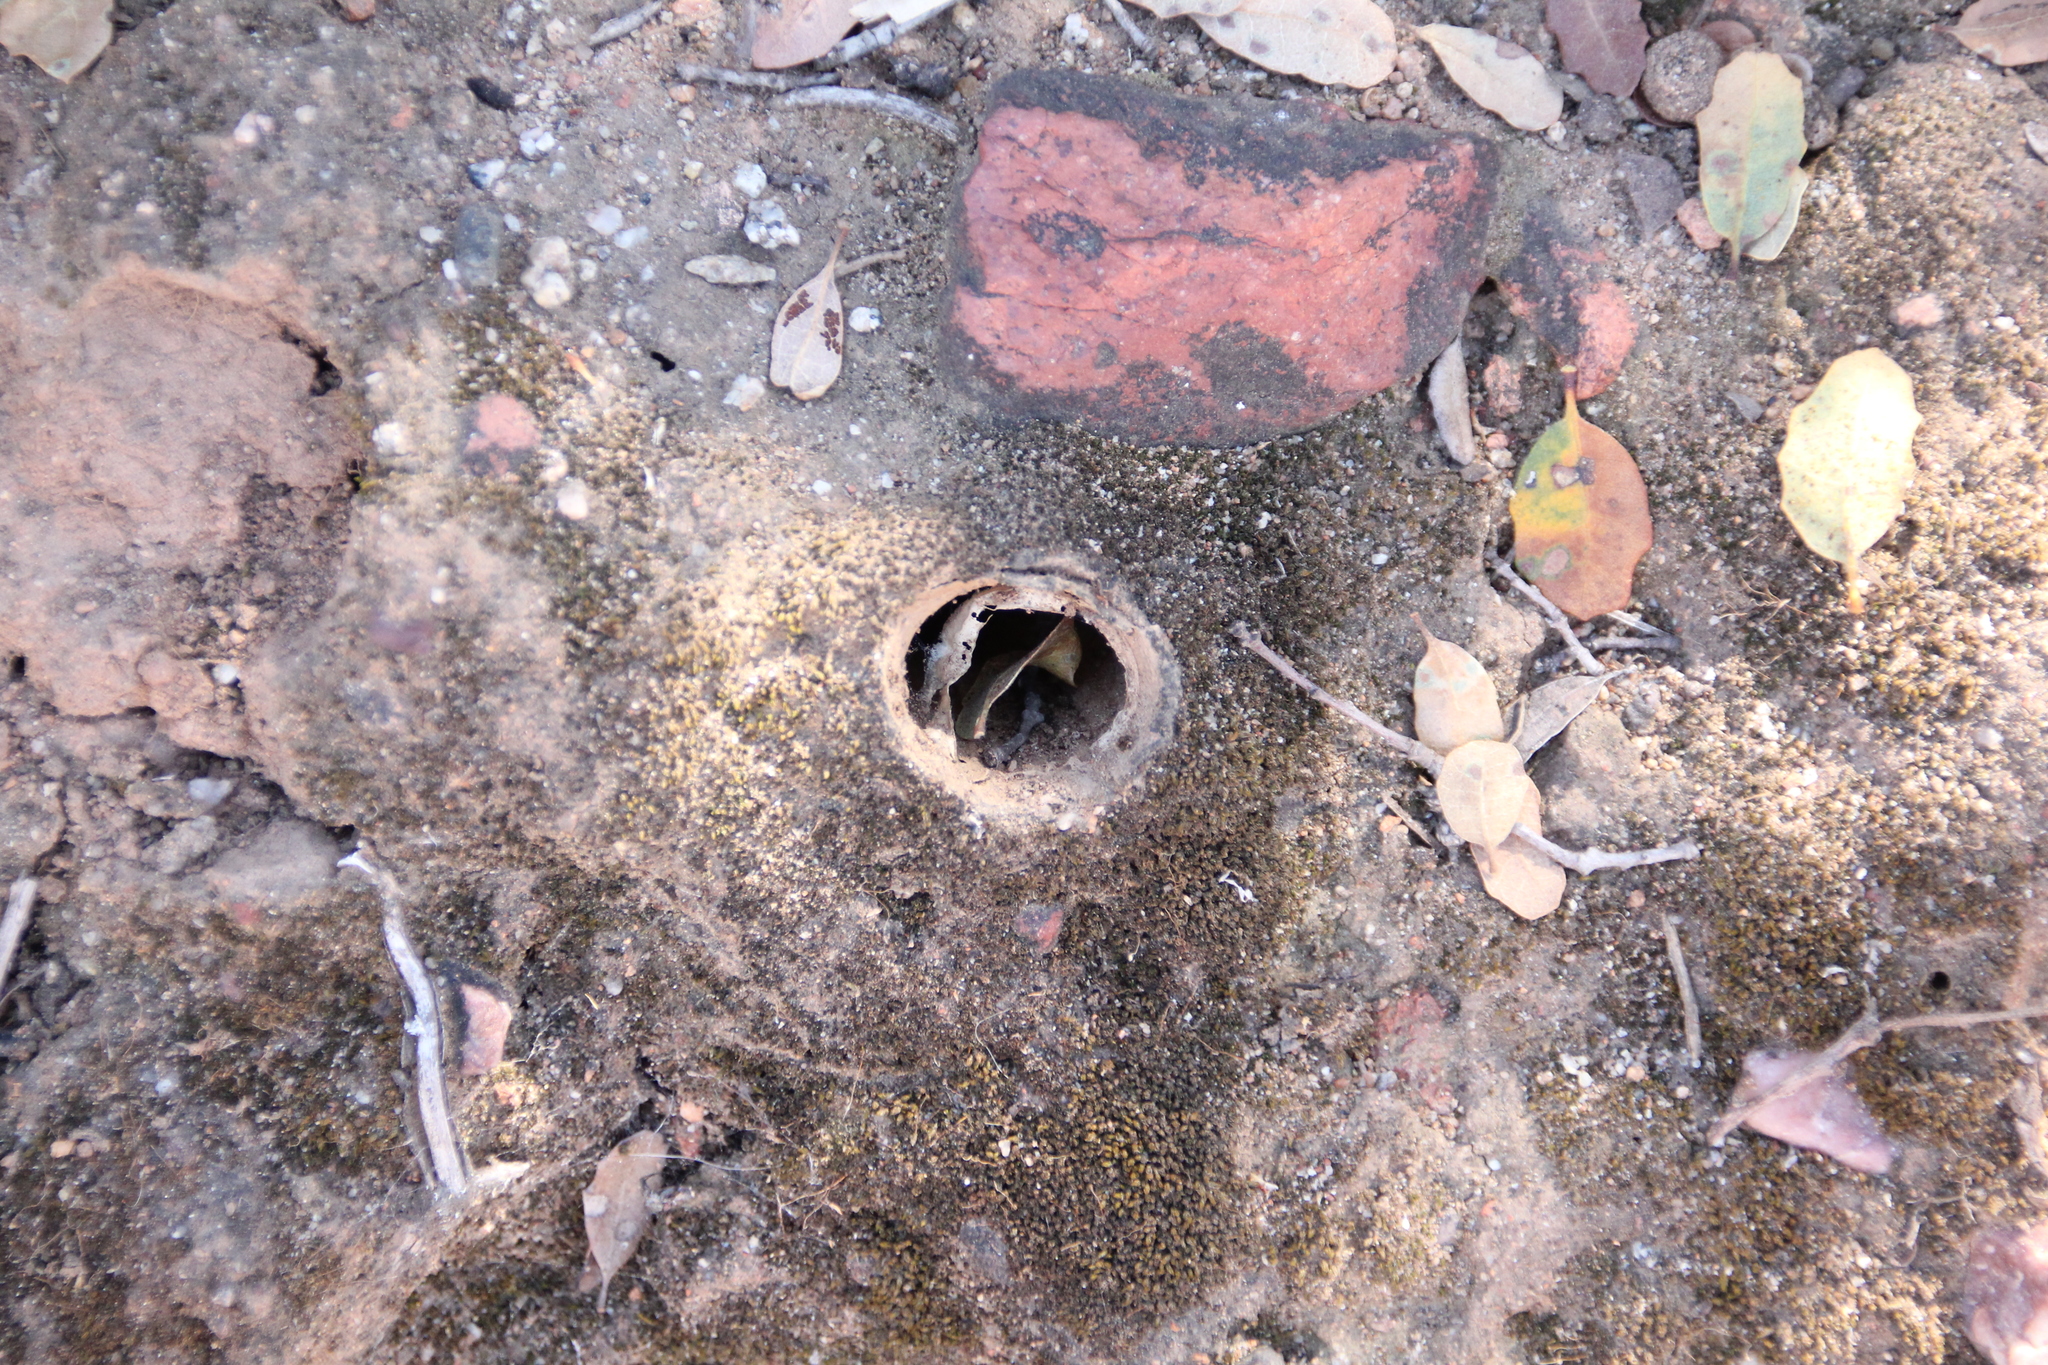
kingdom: Animalia
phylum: Arthropoda
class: Arachnida
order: Araneae
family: Halonoproctidae
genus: Bothriocyrtum
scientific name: Bothriocyrtum californicum
